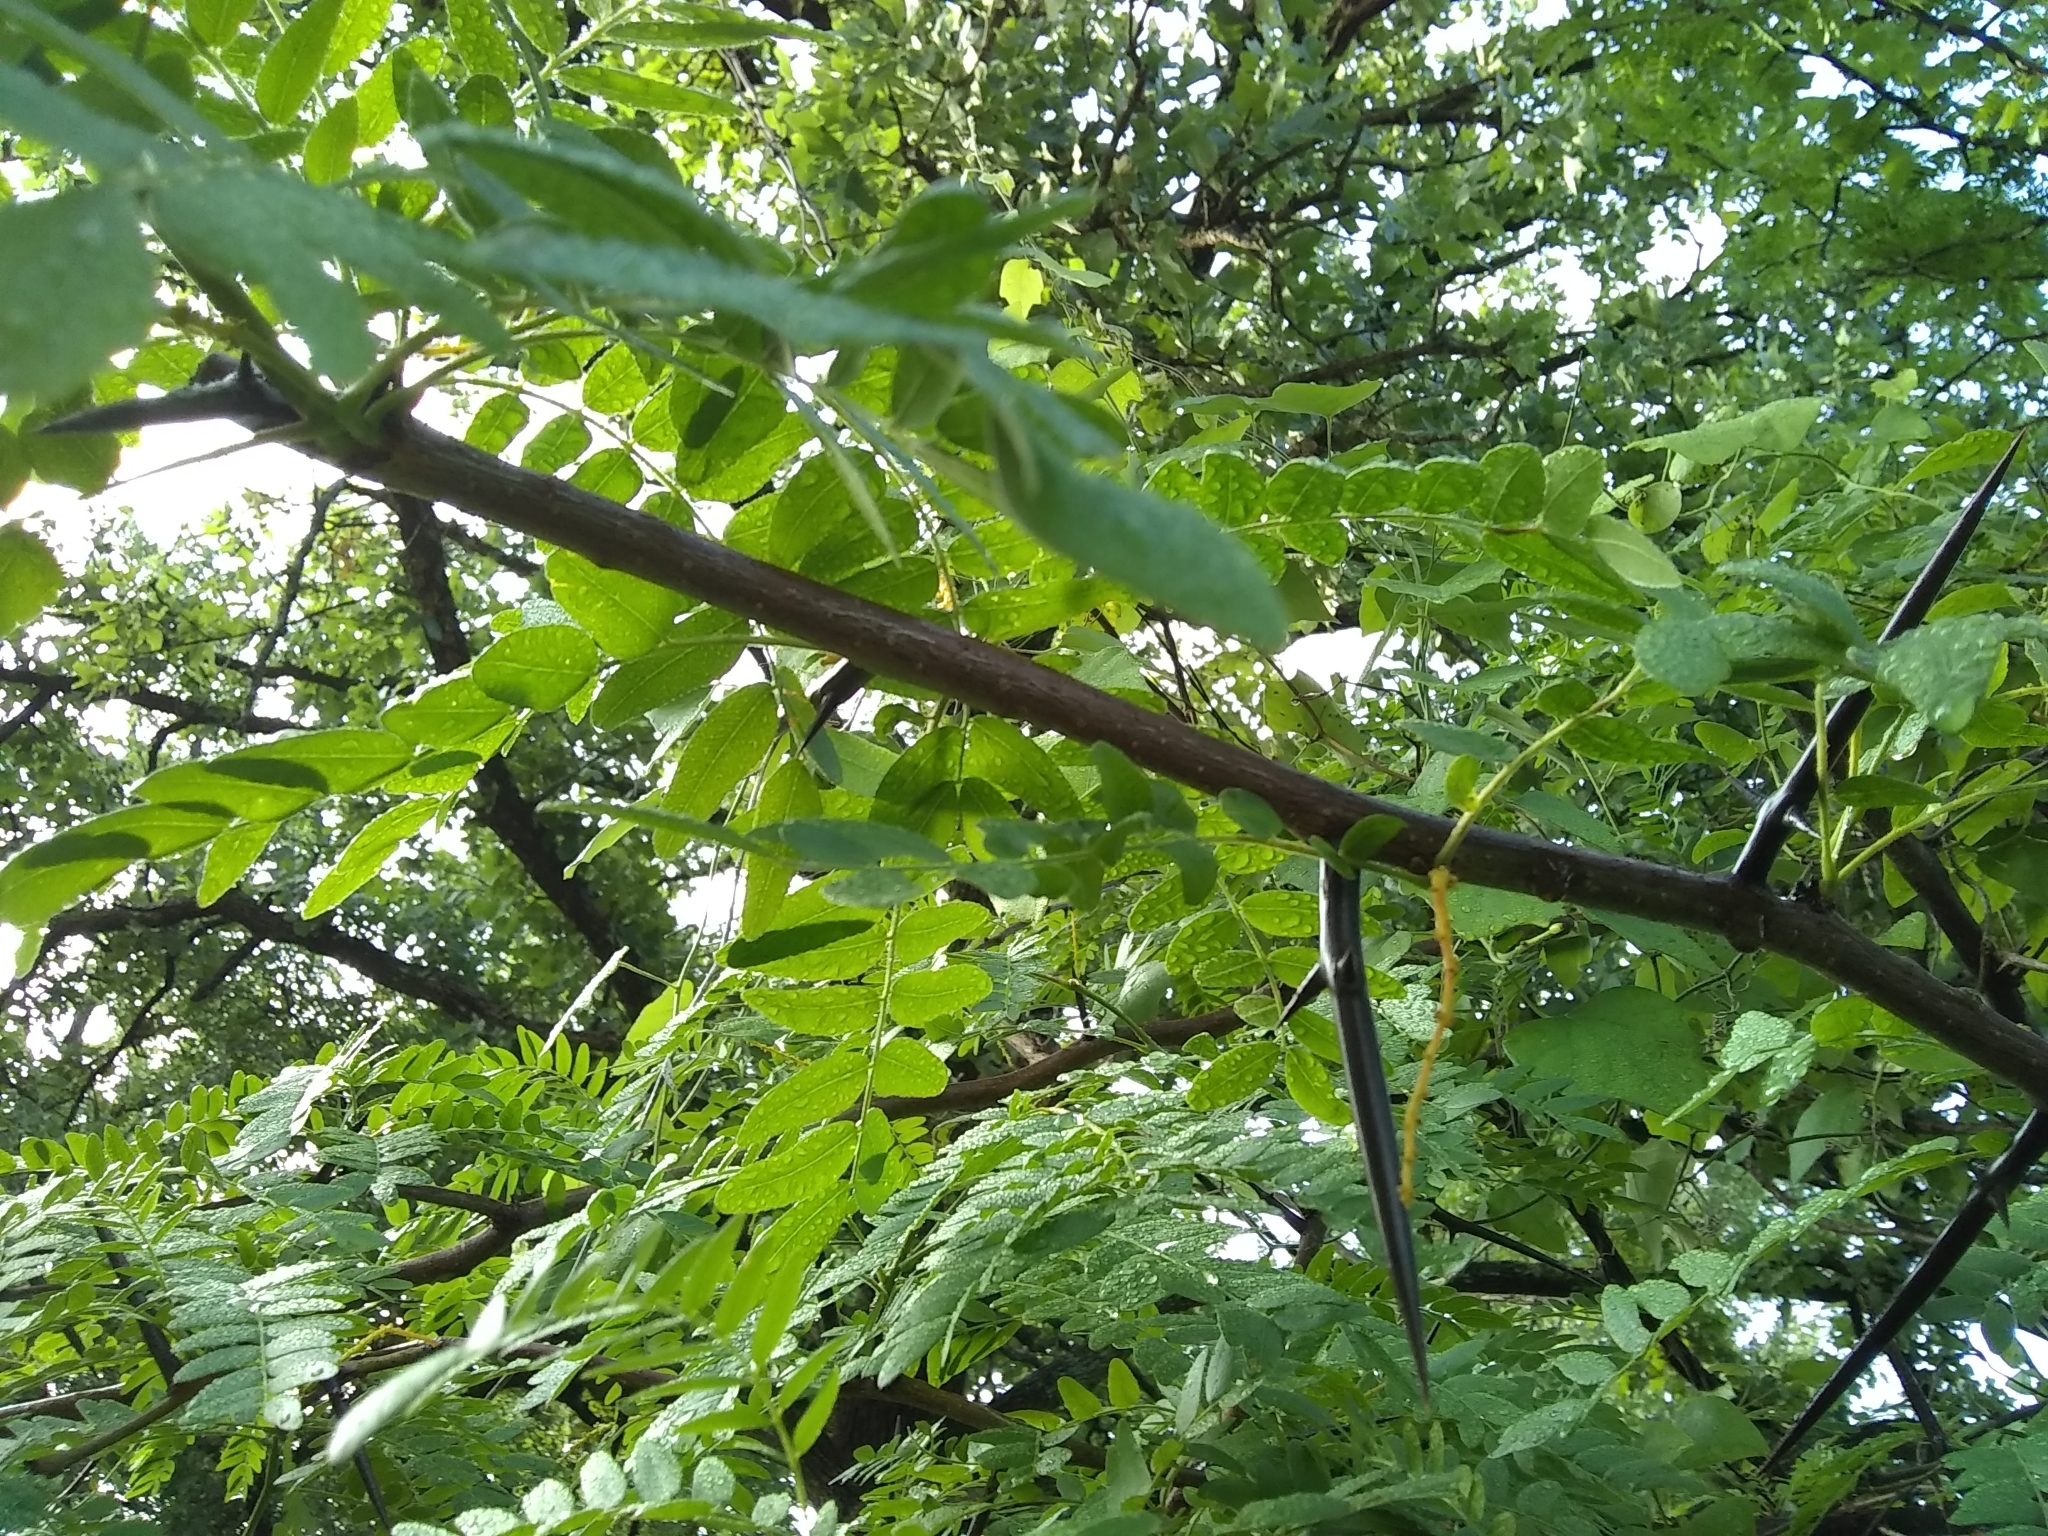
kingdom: Plantae
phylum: Tracheophyta
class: Magnoliopsida
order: Fabales
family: Fabaceae
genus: Gleditsia
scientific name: Gleditsia triacanthos
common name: Common honeylocust
